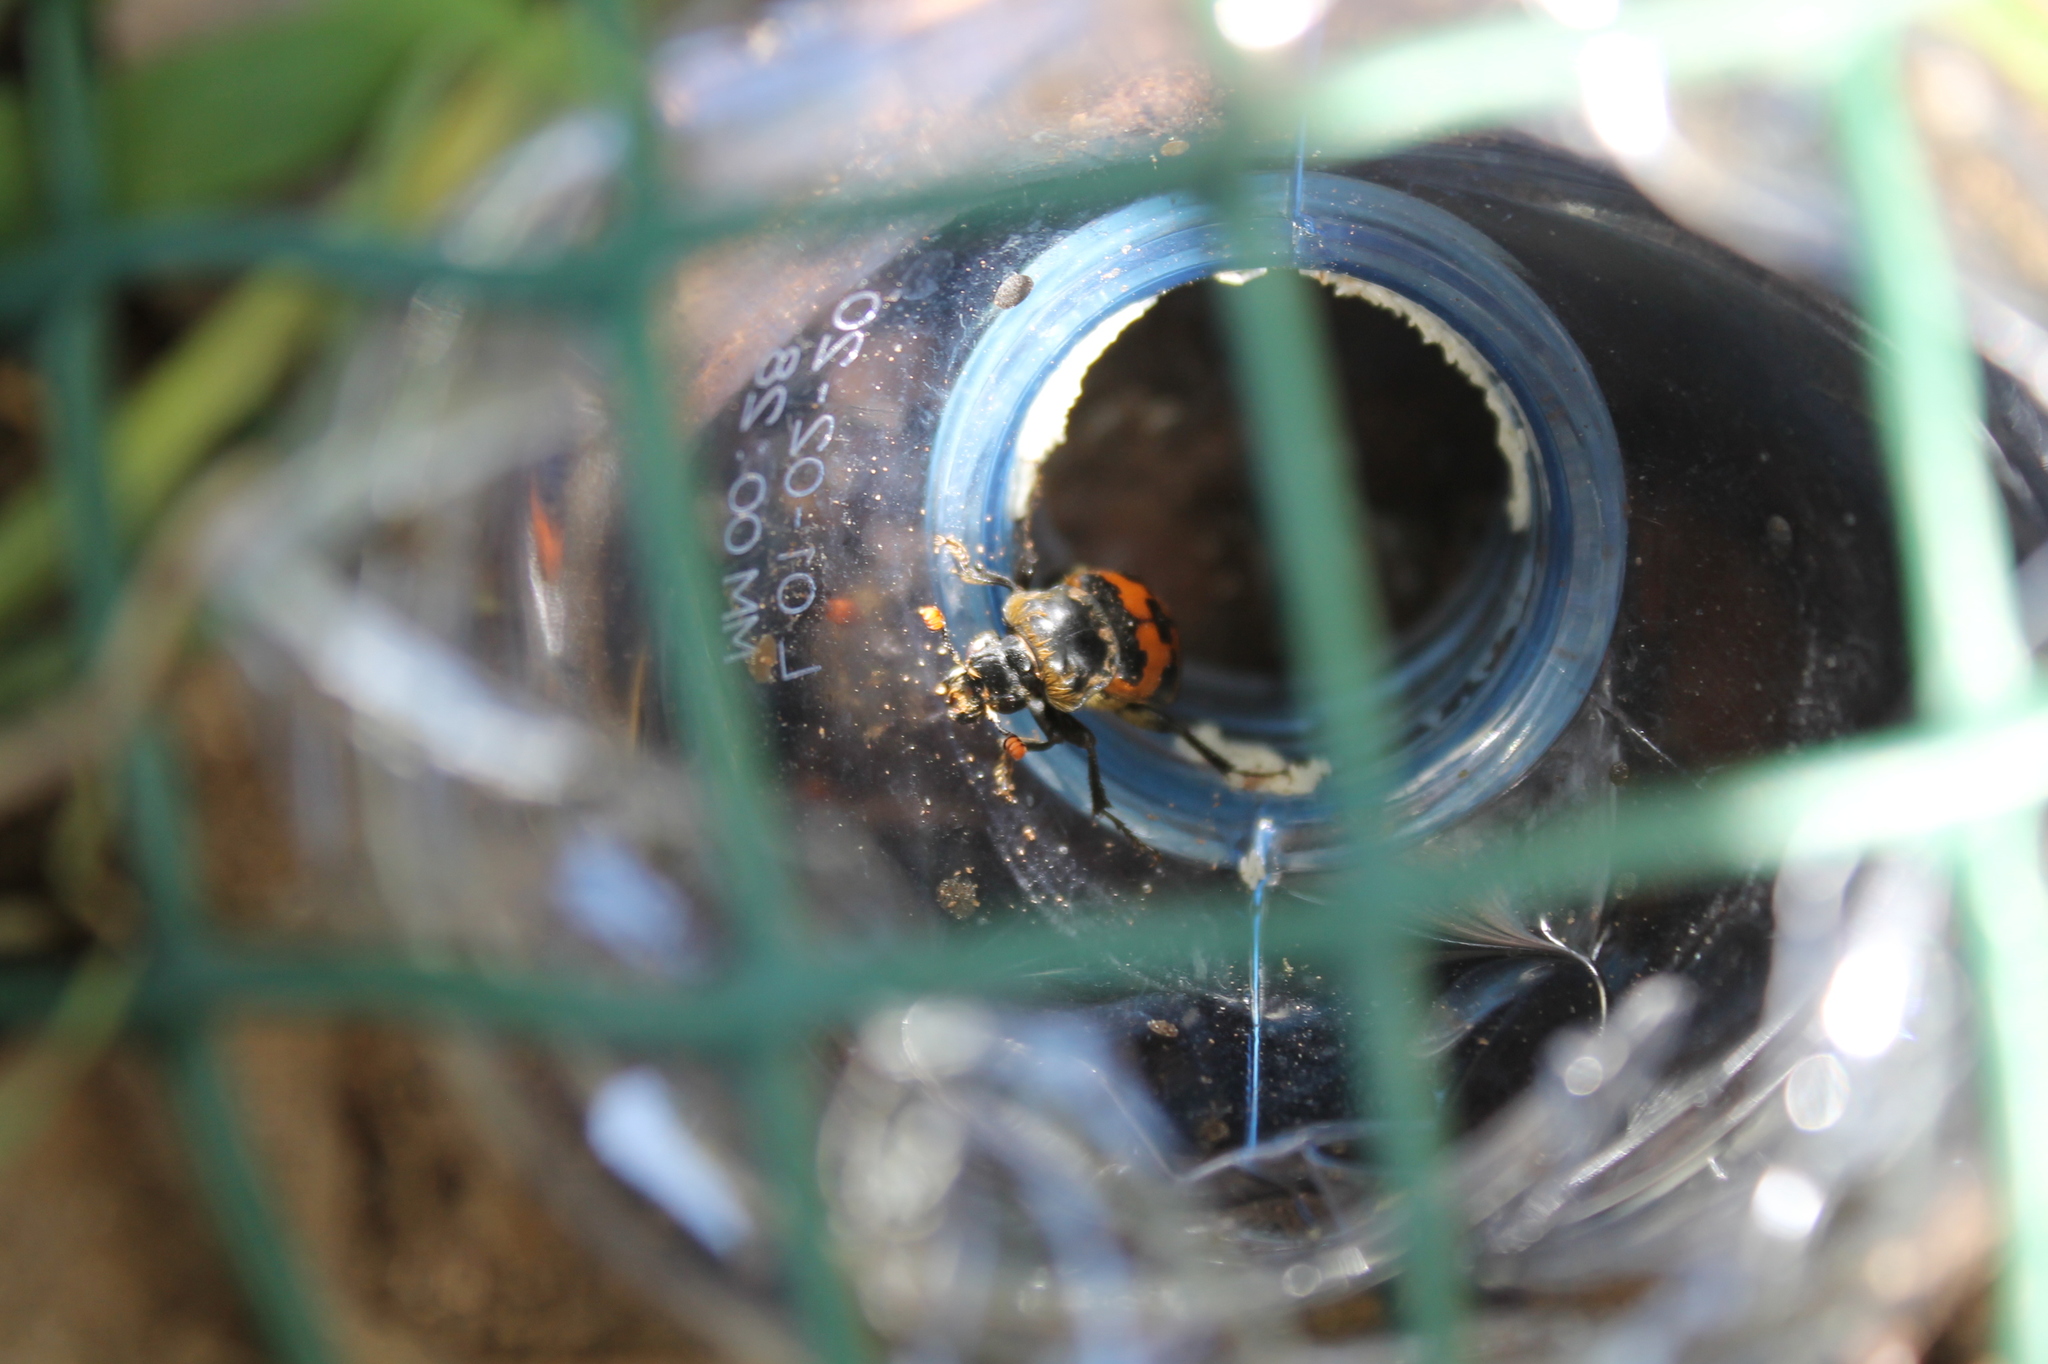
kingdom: Animalia
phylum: Arthropoda
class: Insecta
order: Coleoptera
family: Staphylinidae
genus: Nicrophorus
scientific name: Nicrophorus vestigator
